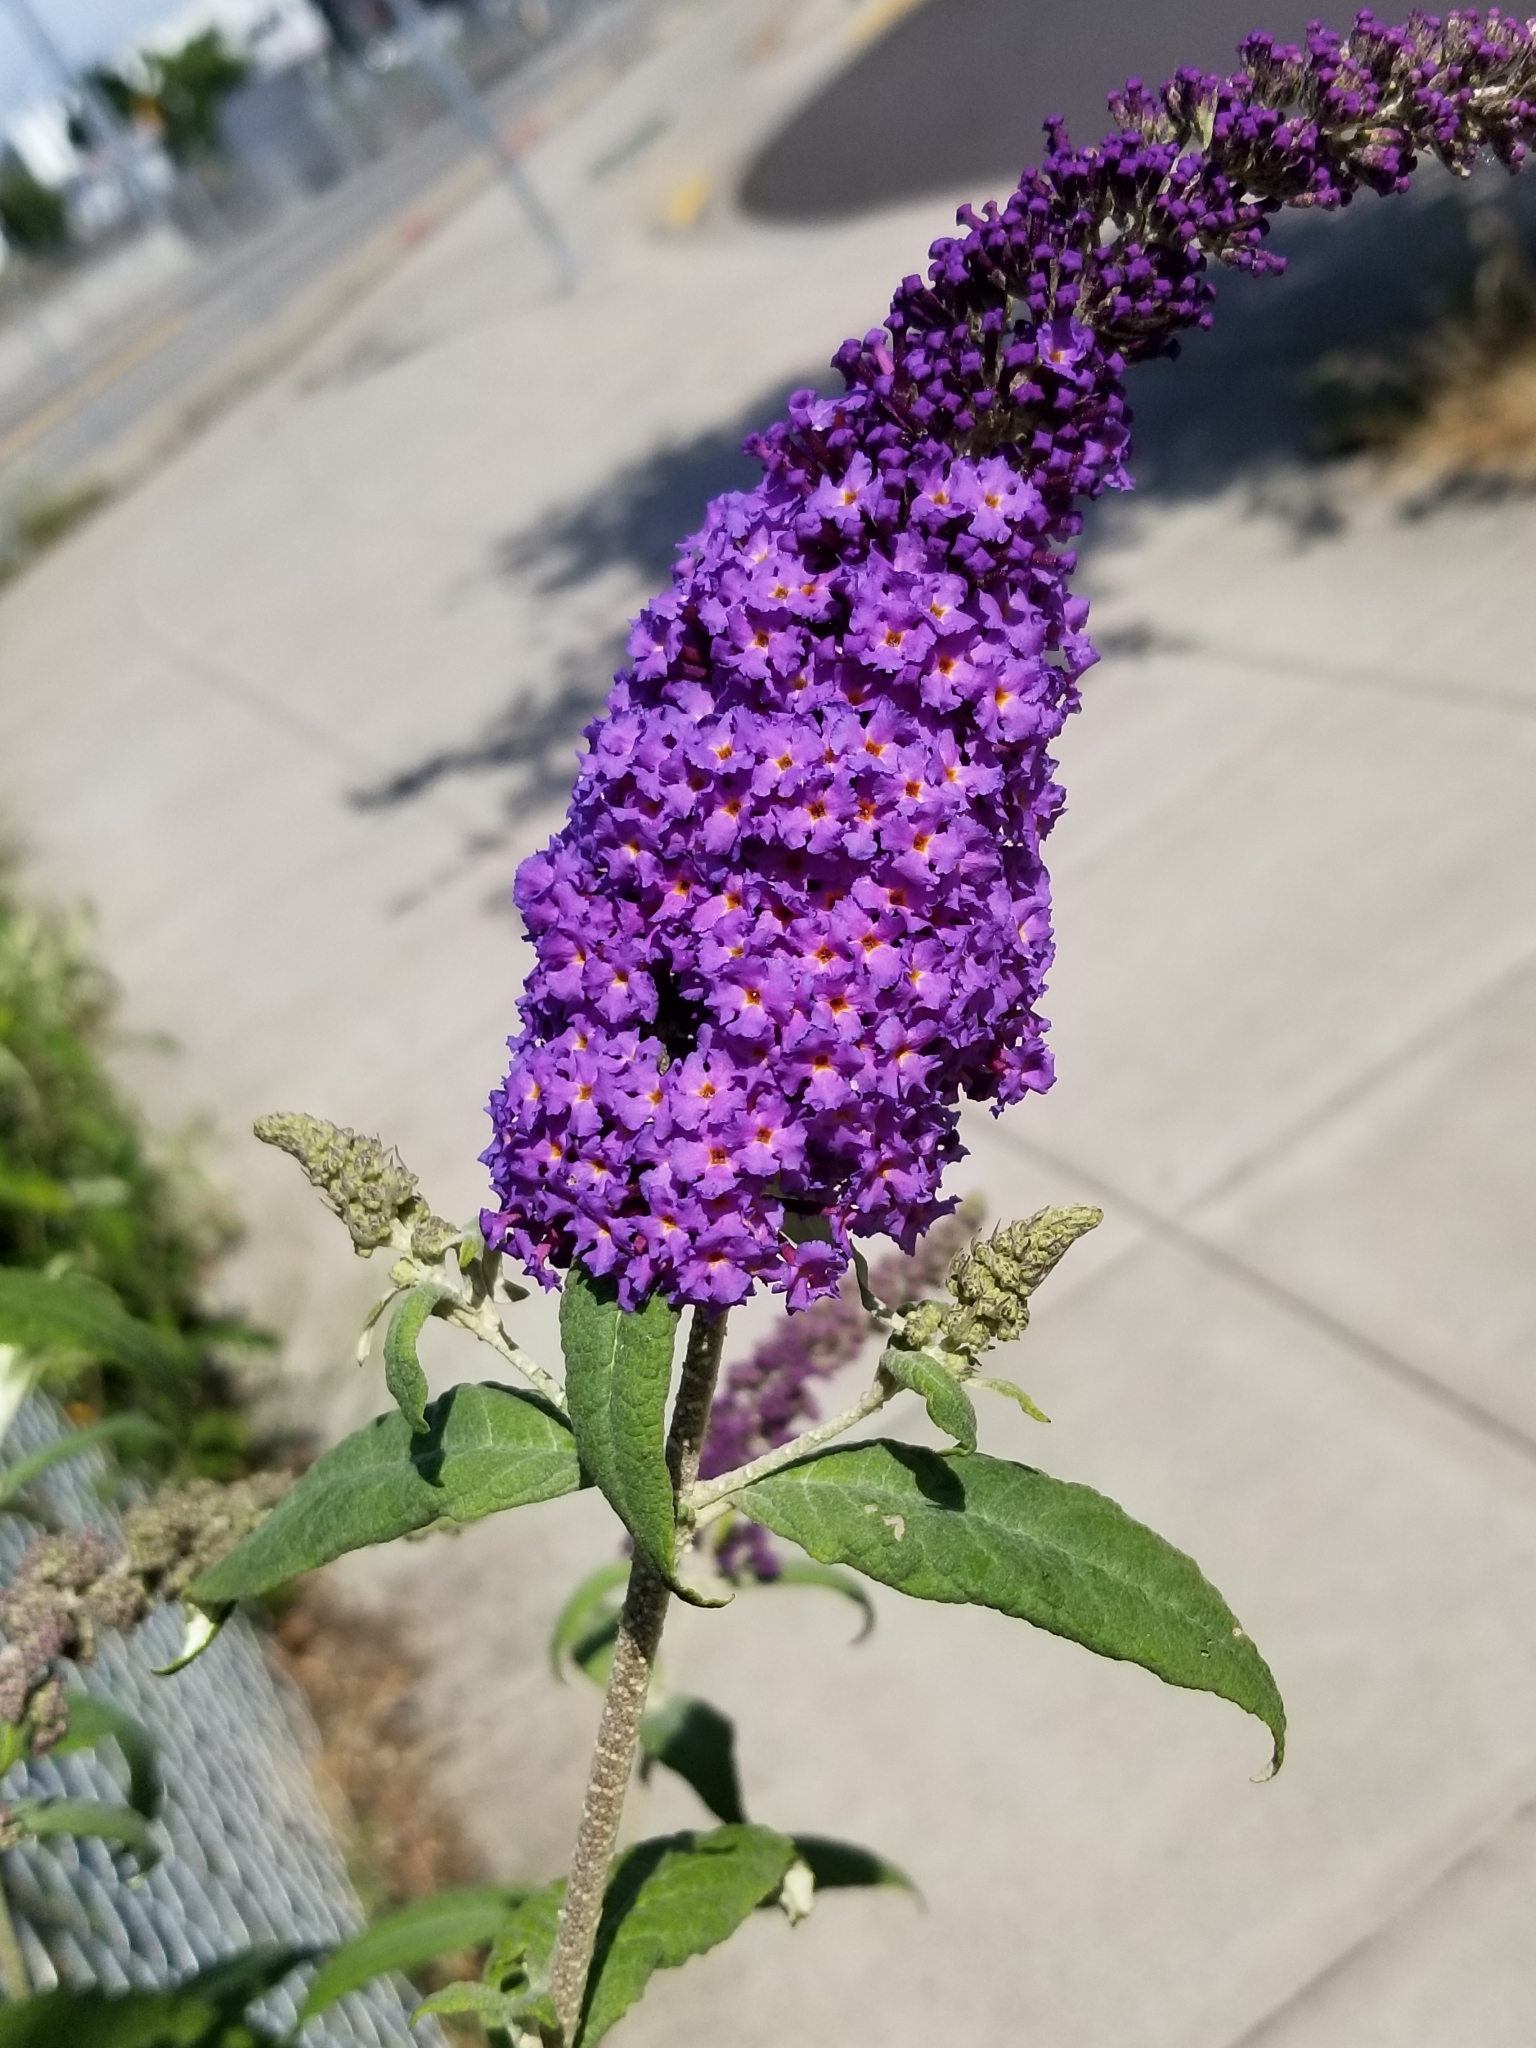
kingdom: Plantae
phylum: Tracheophyta
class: Magnoliopsida
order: Lamiales
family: Scrophulariaceae
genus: Buddleja
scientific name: Buddleja davidii
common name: Butterfly-bush
